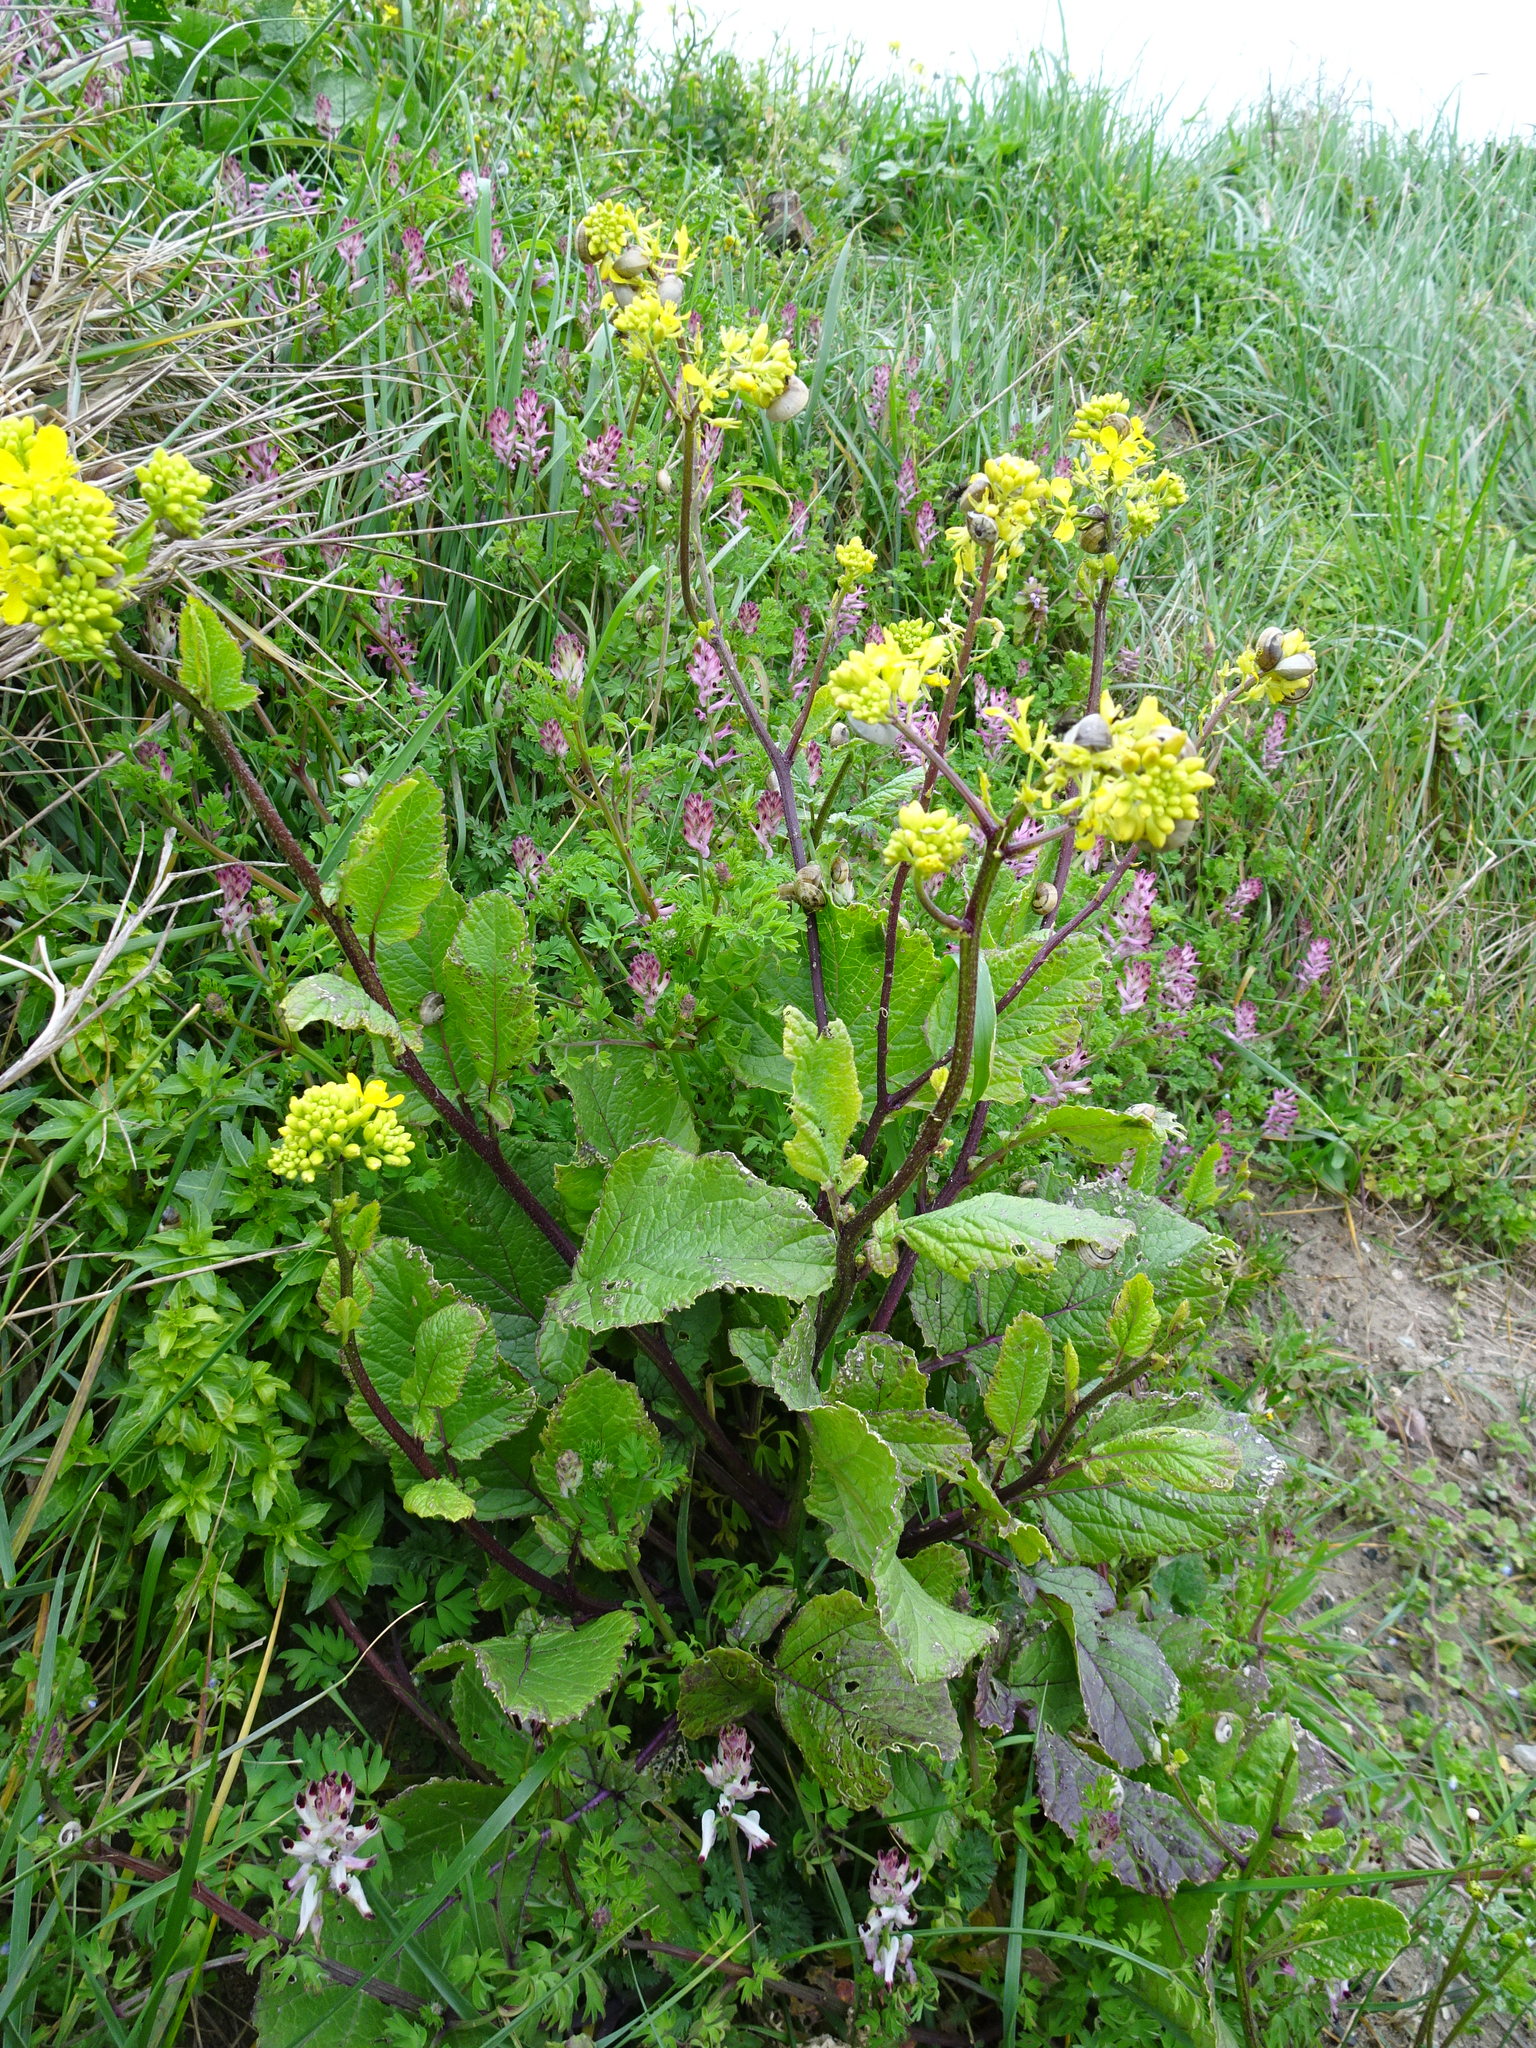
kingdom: Plantae
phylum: Tracheophyta
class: Magnoliopsida
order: Brassicales
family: Brassicaceae
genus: Sinapis
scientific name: Sinapis arvensis
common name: Charlock
